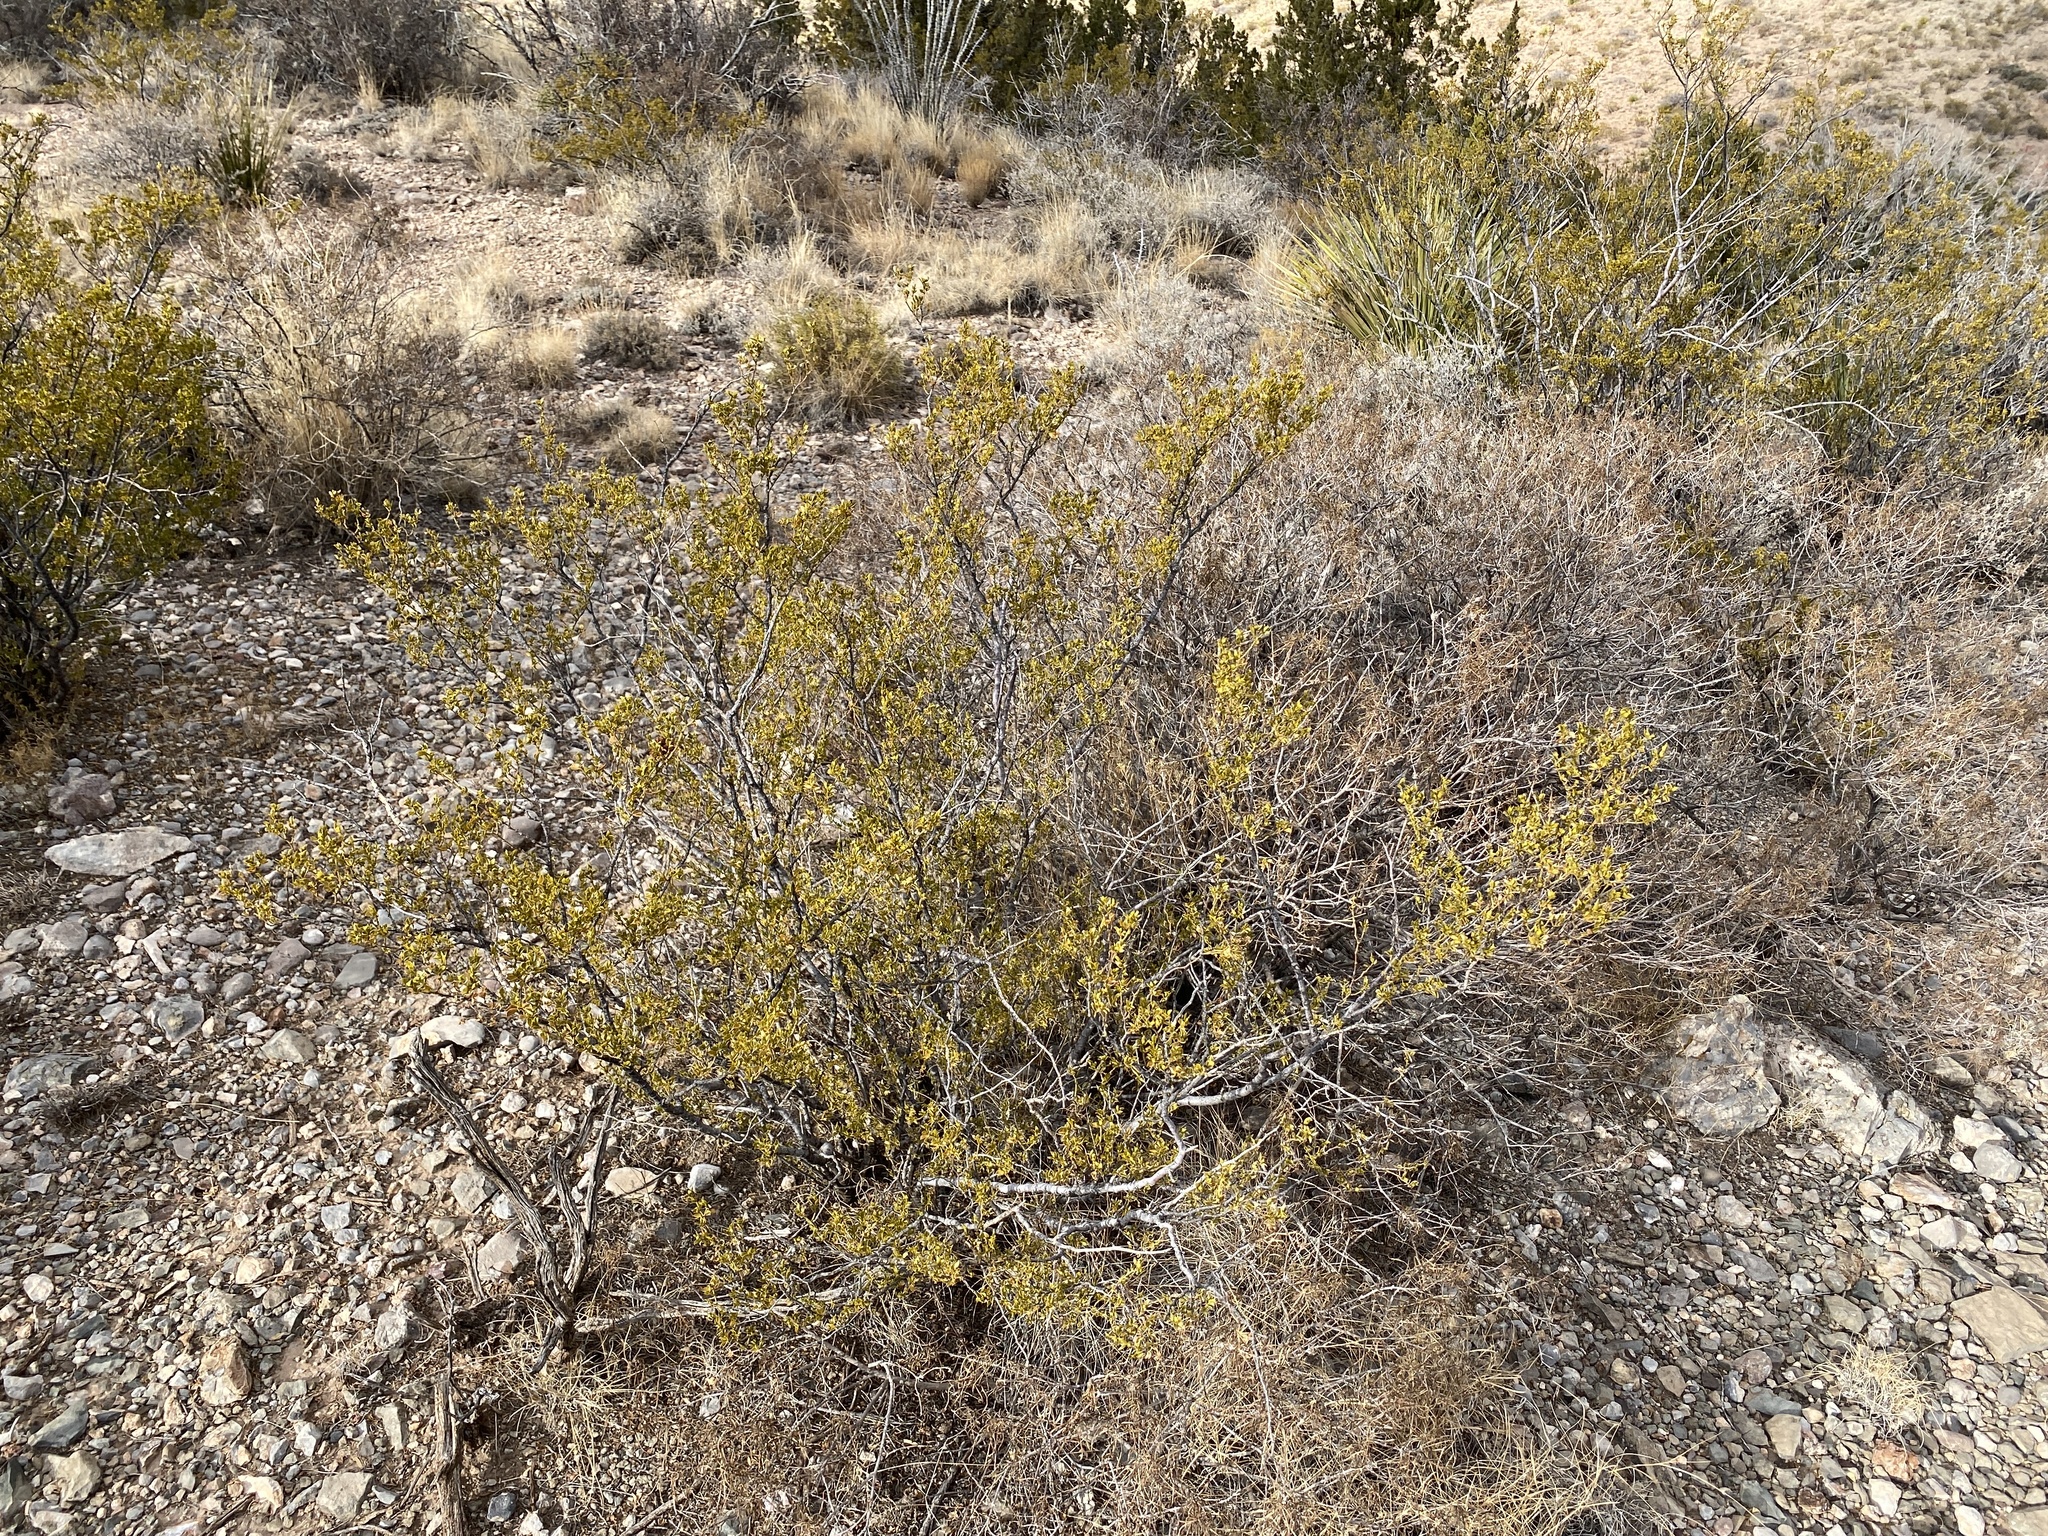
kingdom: Plantae
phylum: Tracheophyta
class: Magnoliopsida
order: Zygophyllales
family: Zygophyllaceae
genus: Larrea
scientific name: Larrea tridentata
